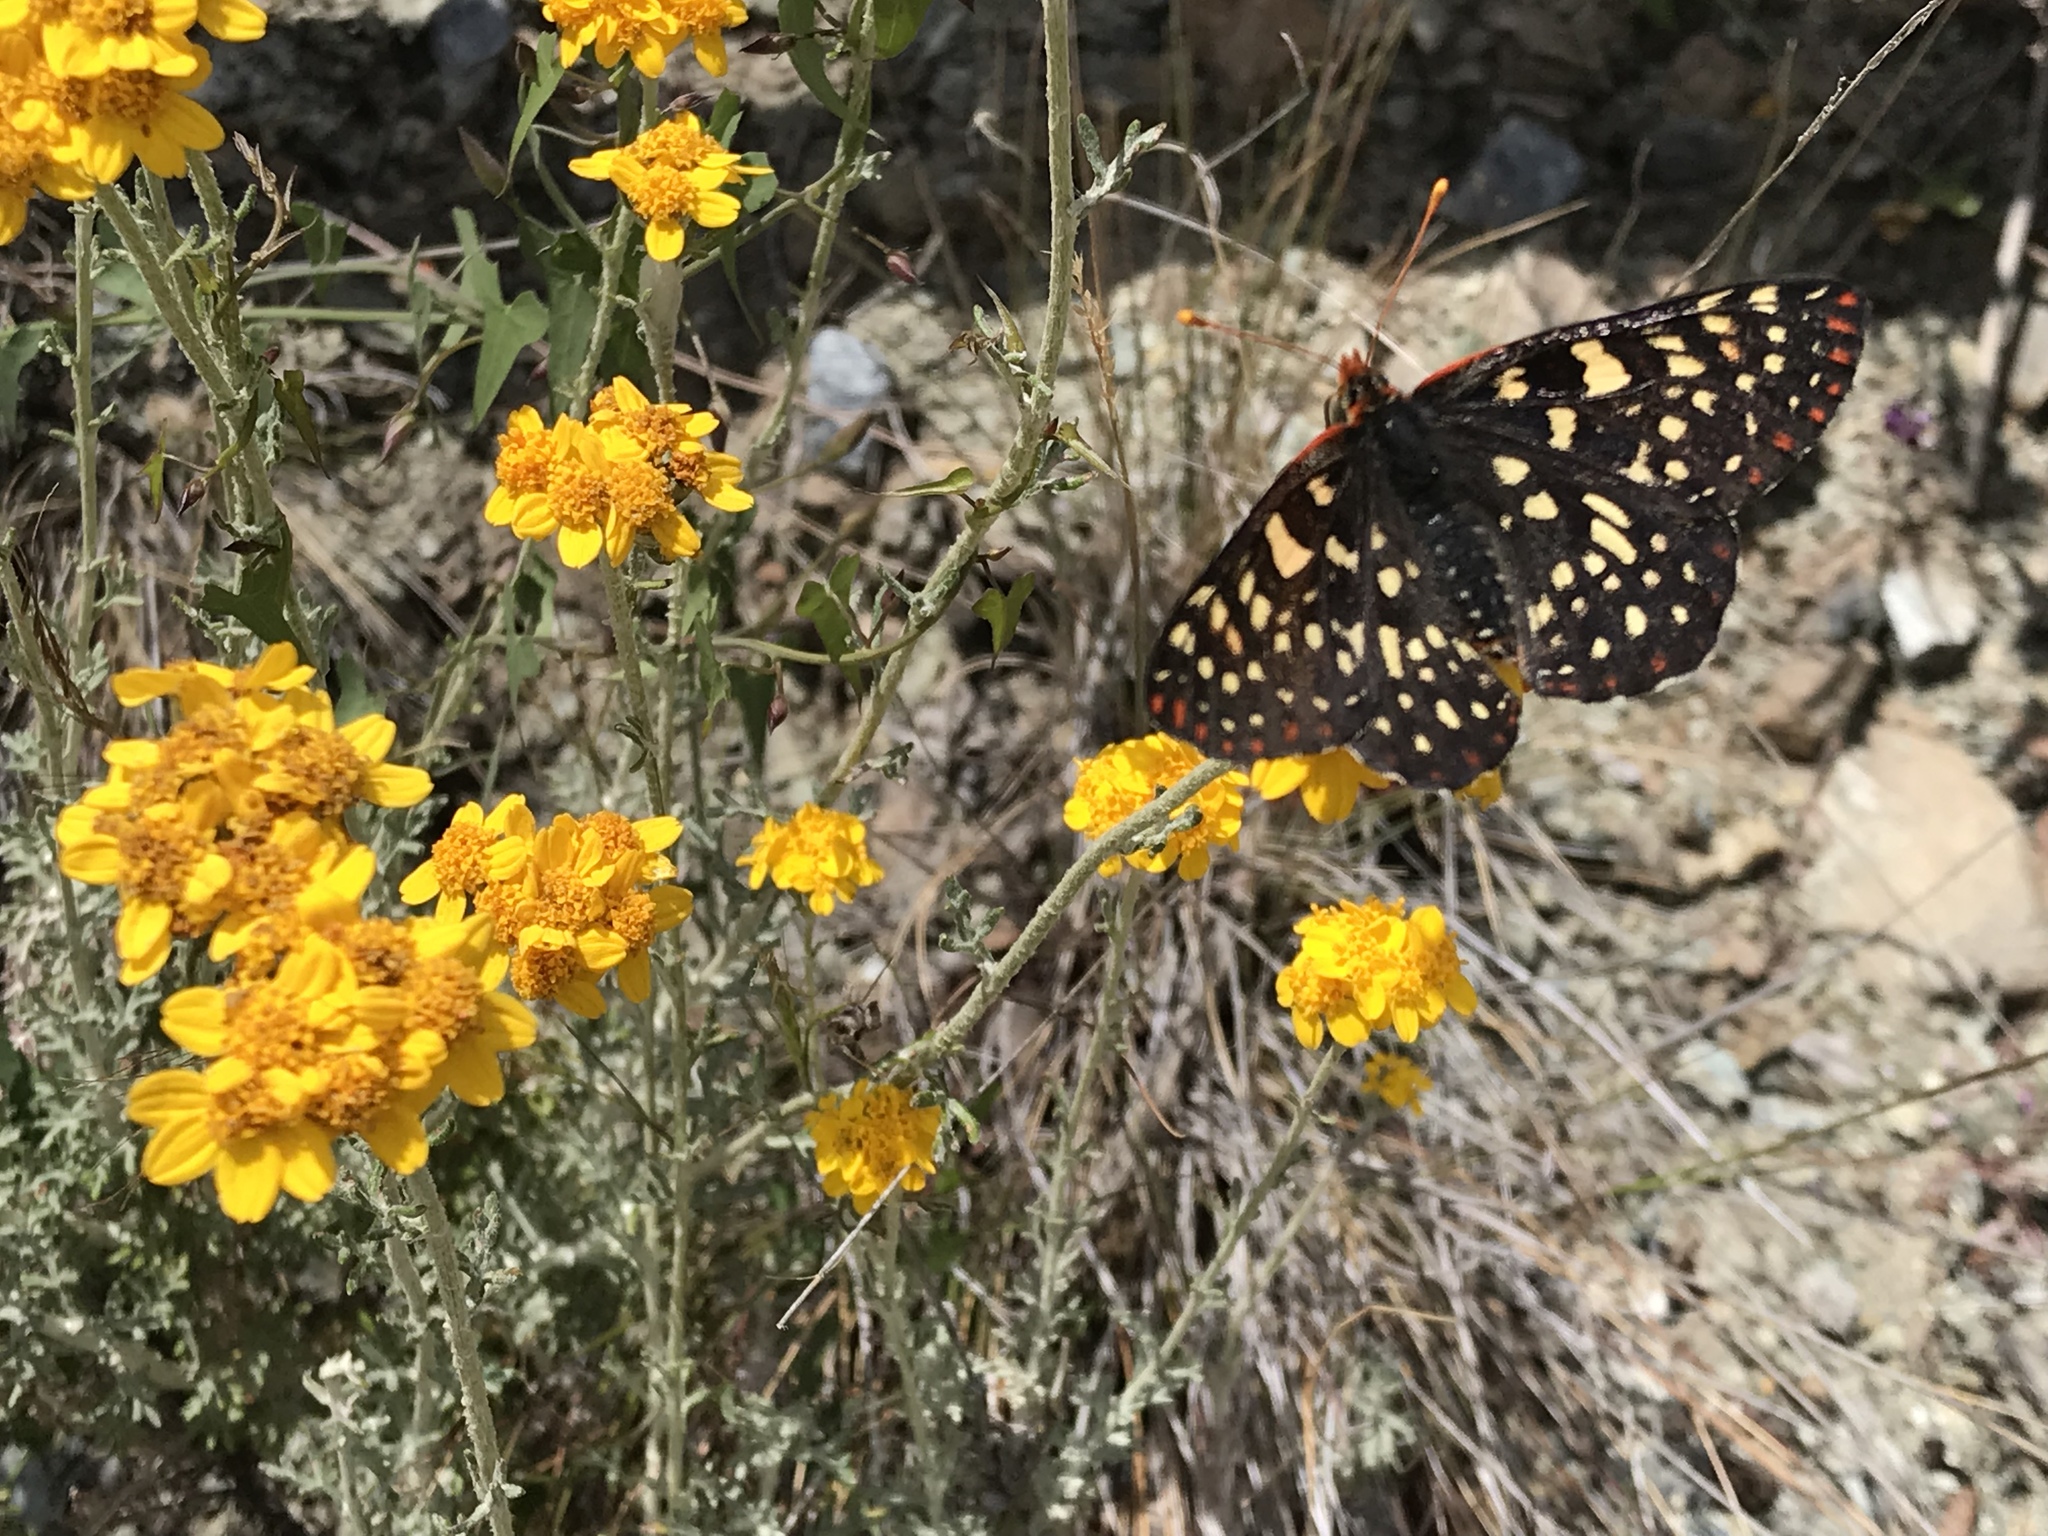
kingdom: Animalia
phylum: Arthropoda
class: Insecta
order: Lepidoptera
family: Nymphalidae
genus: Occidryas
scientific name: Occidryas chalcedona
